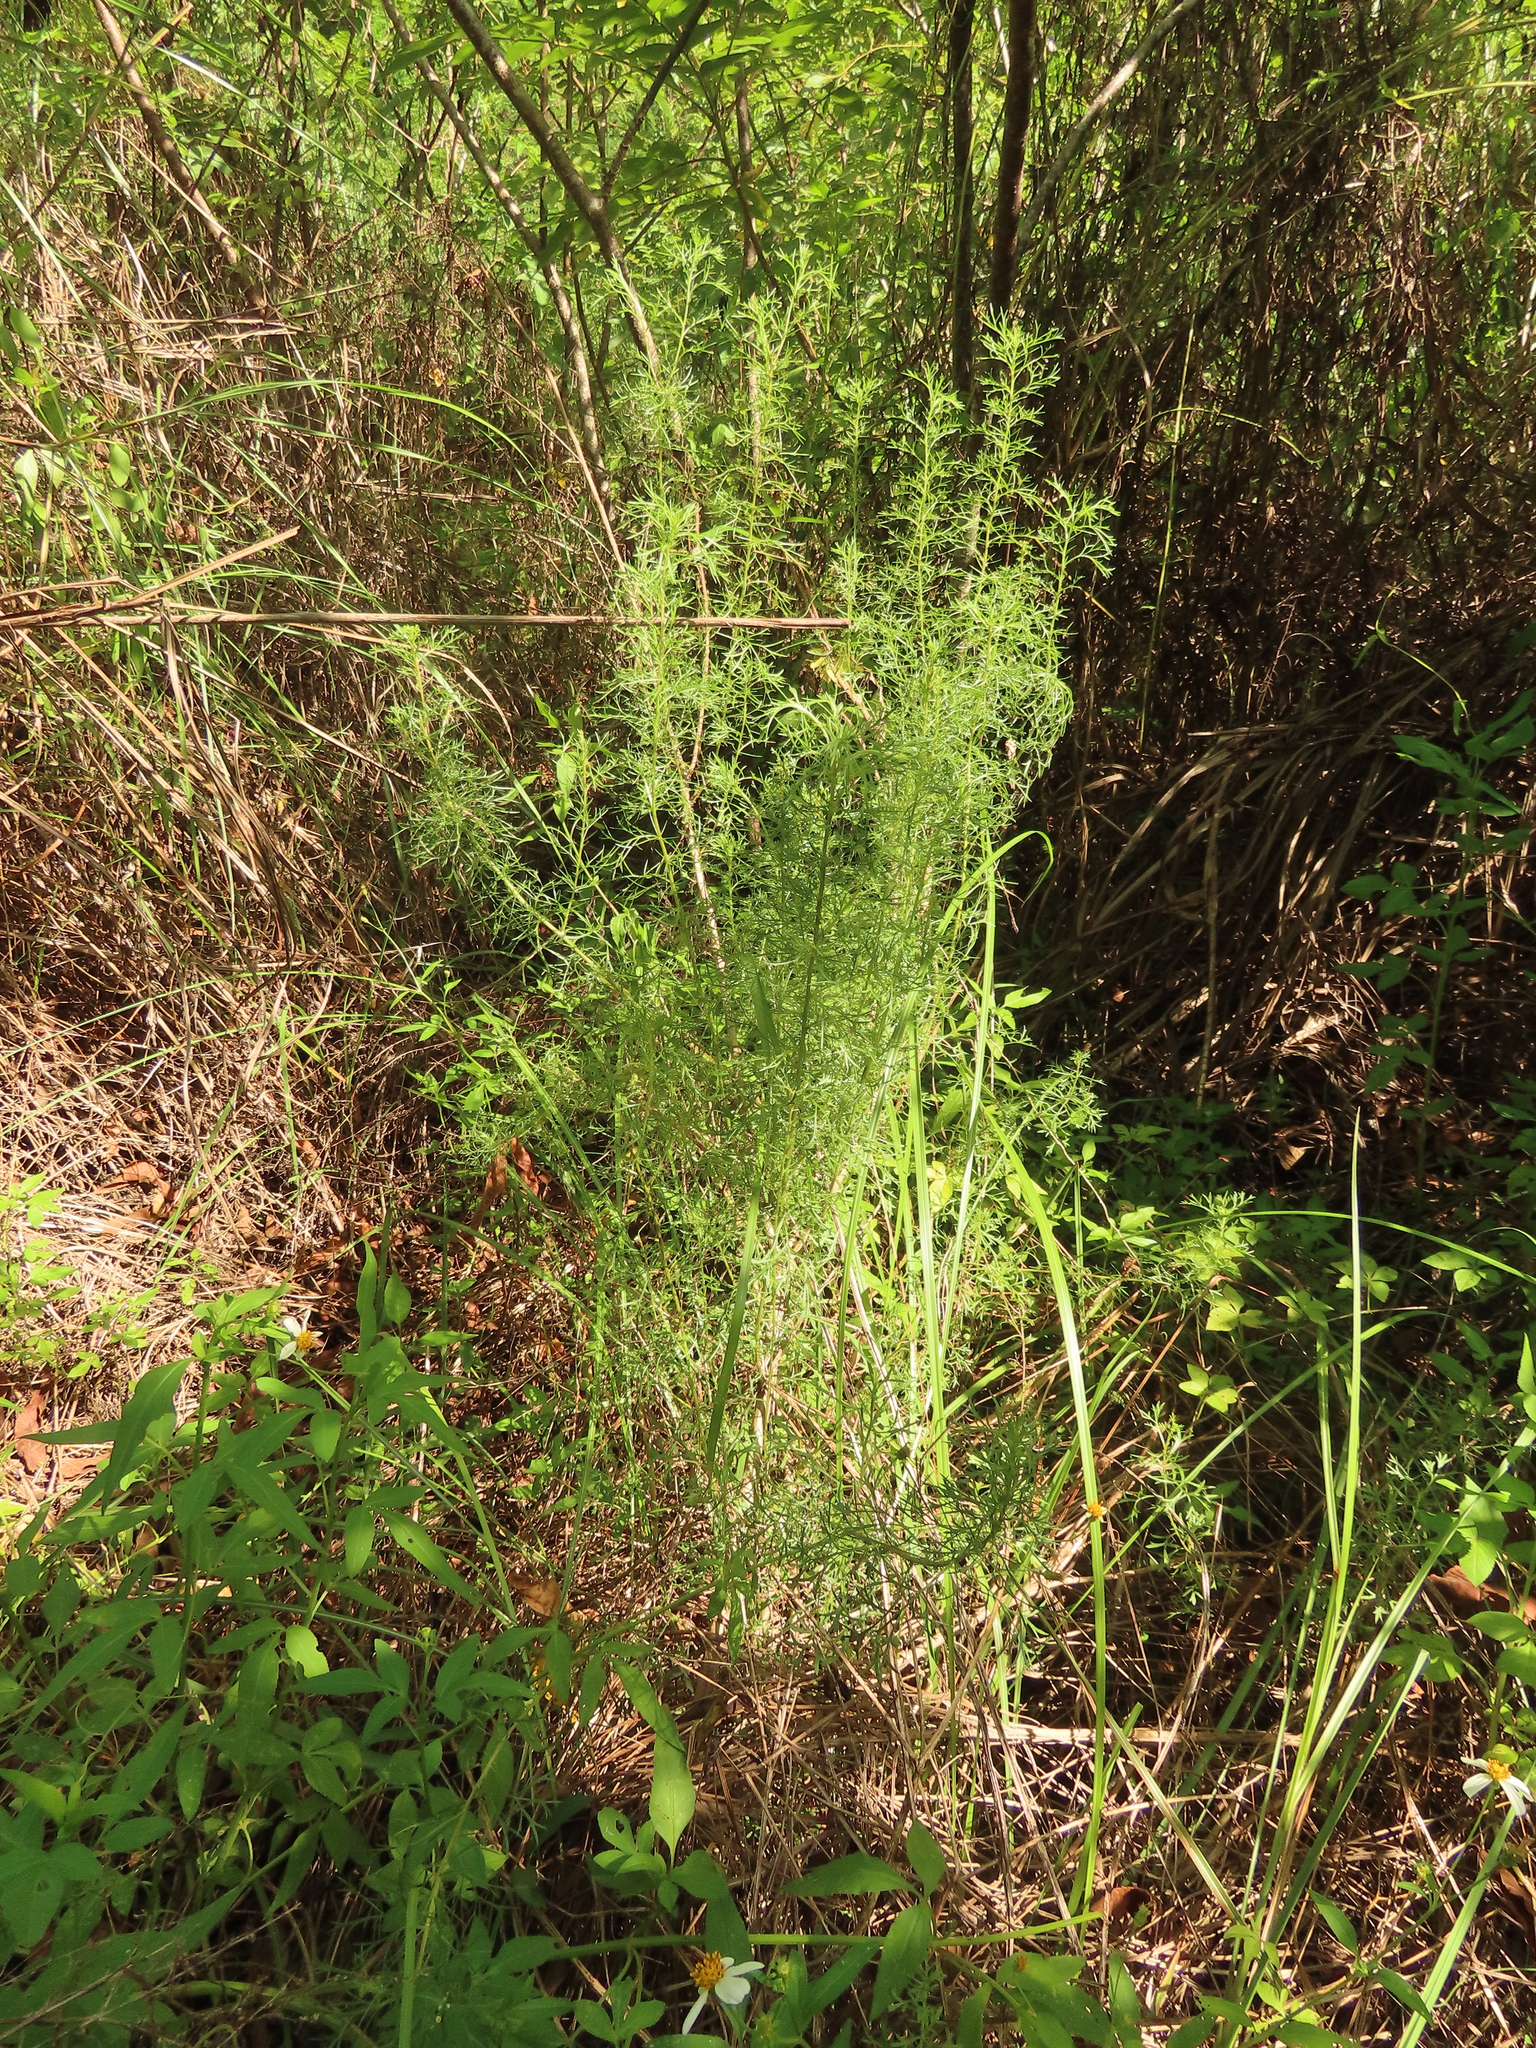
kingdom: Plantae
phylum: Tracheophyta
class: Magnoliopsida
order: Asterales
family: Asteraceae
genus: Artemisia
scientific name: Artemisia capillaris
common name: Yin-chen wormwood
